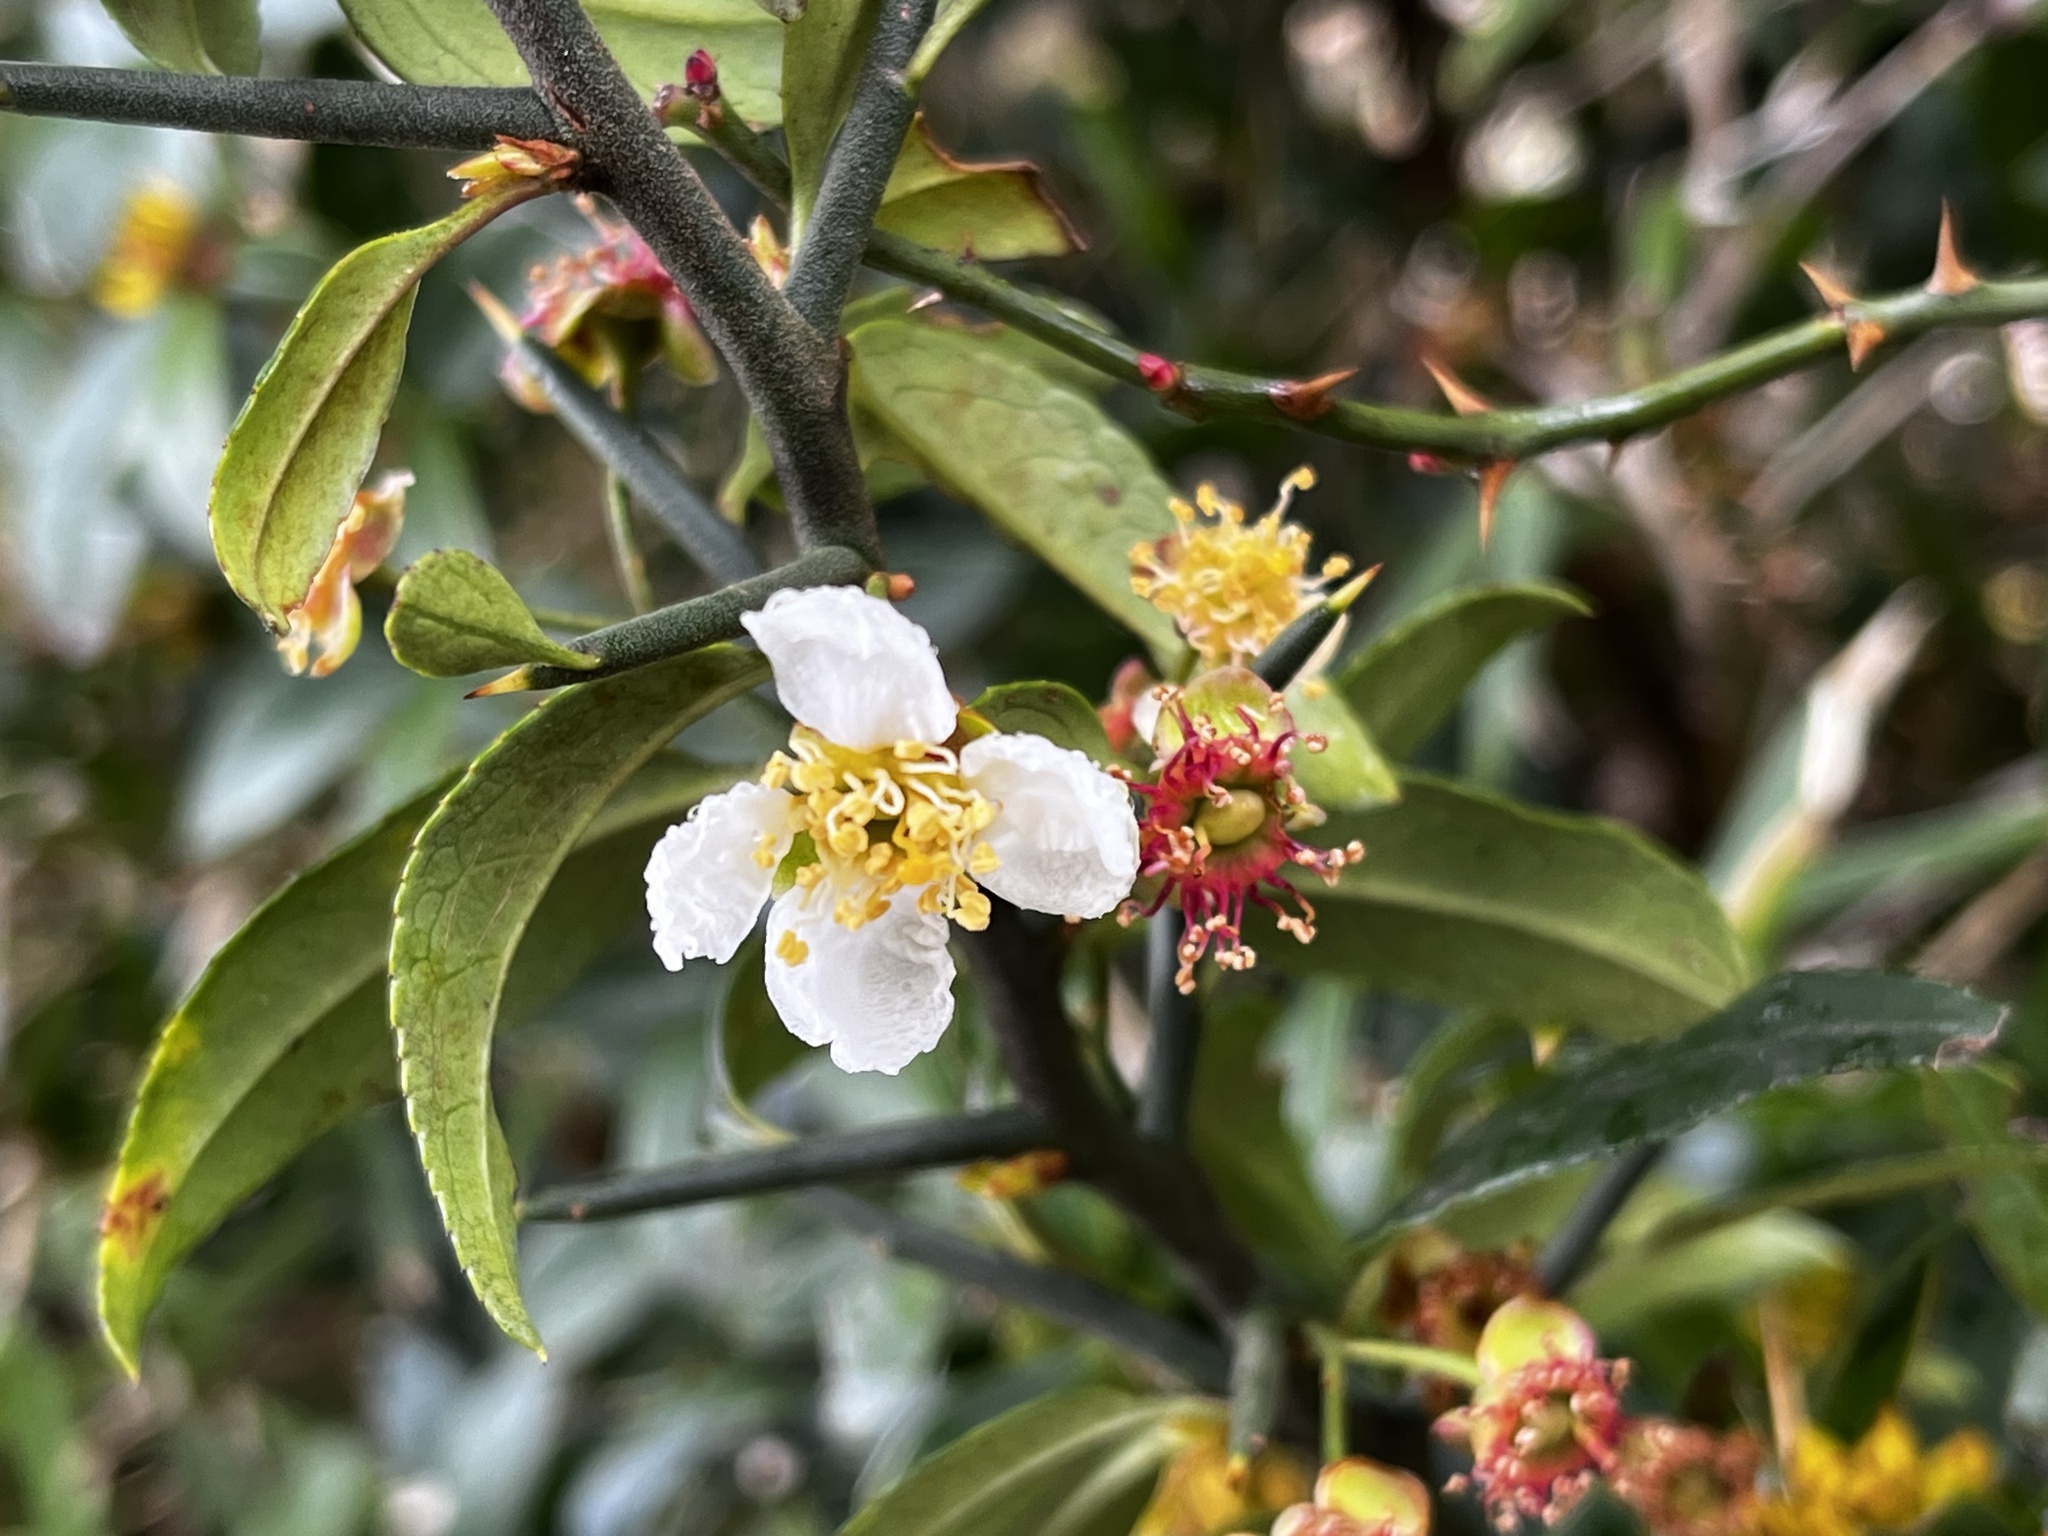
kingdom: Plantae
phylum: Tracheophyta
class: Magnoliopsida
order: Rosales
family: Rosaceae
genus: Prinsepia
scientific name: Prinsepia scandens
